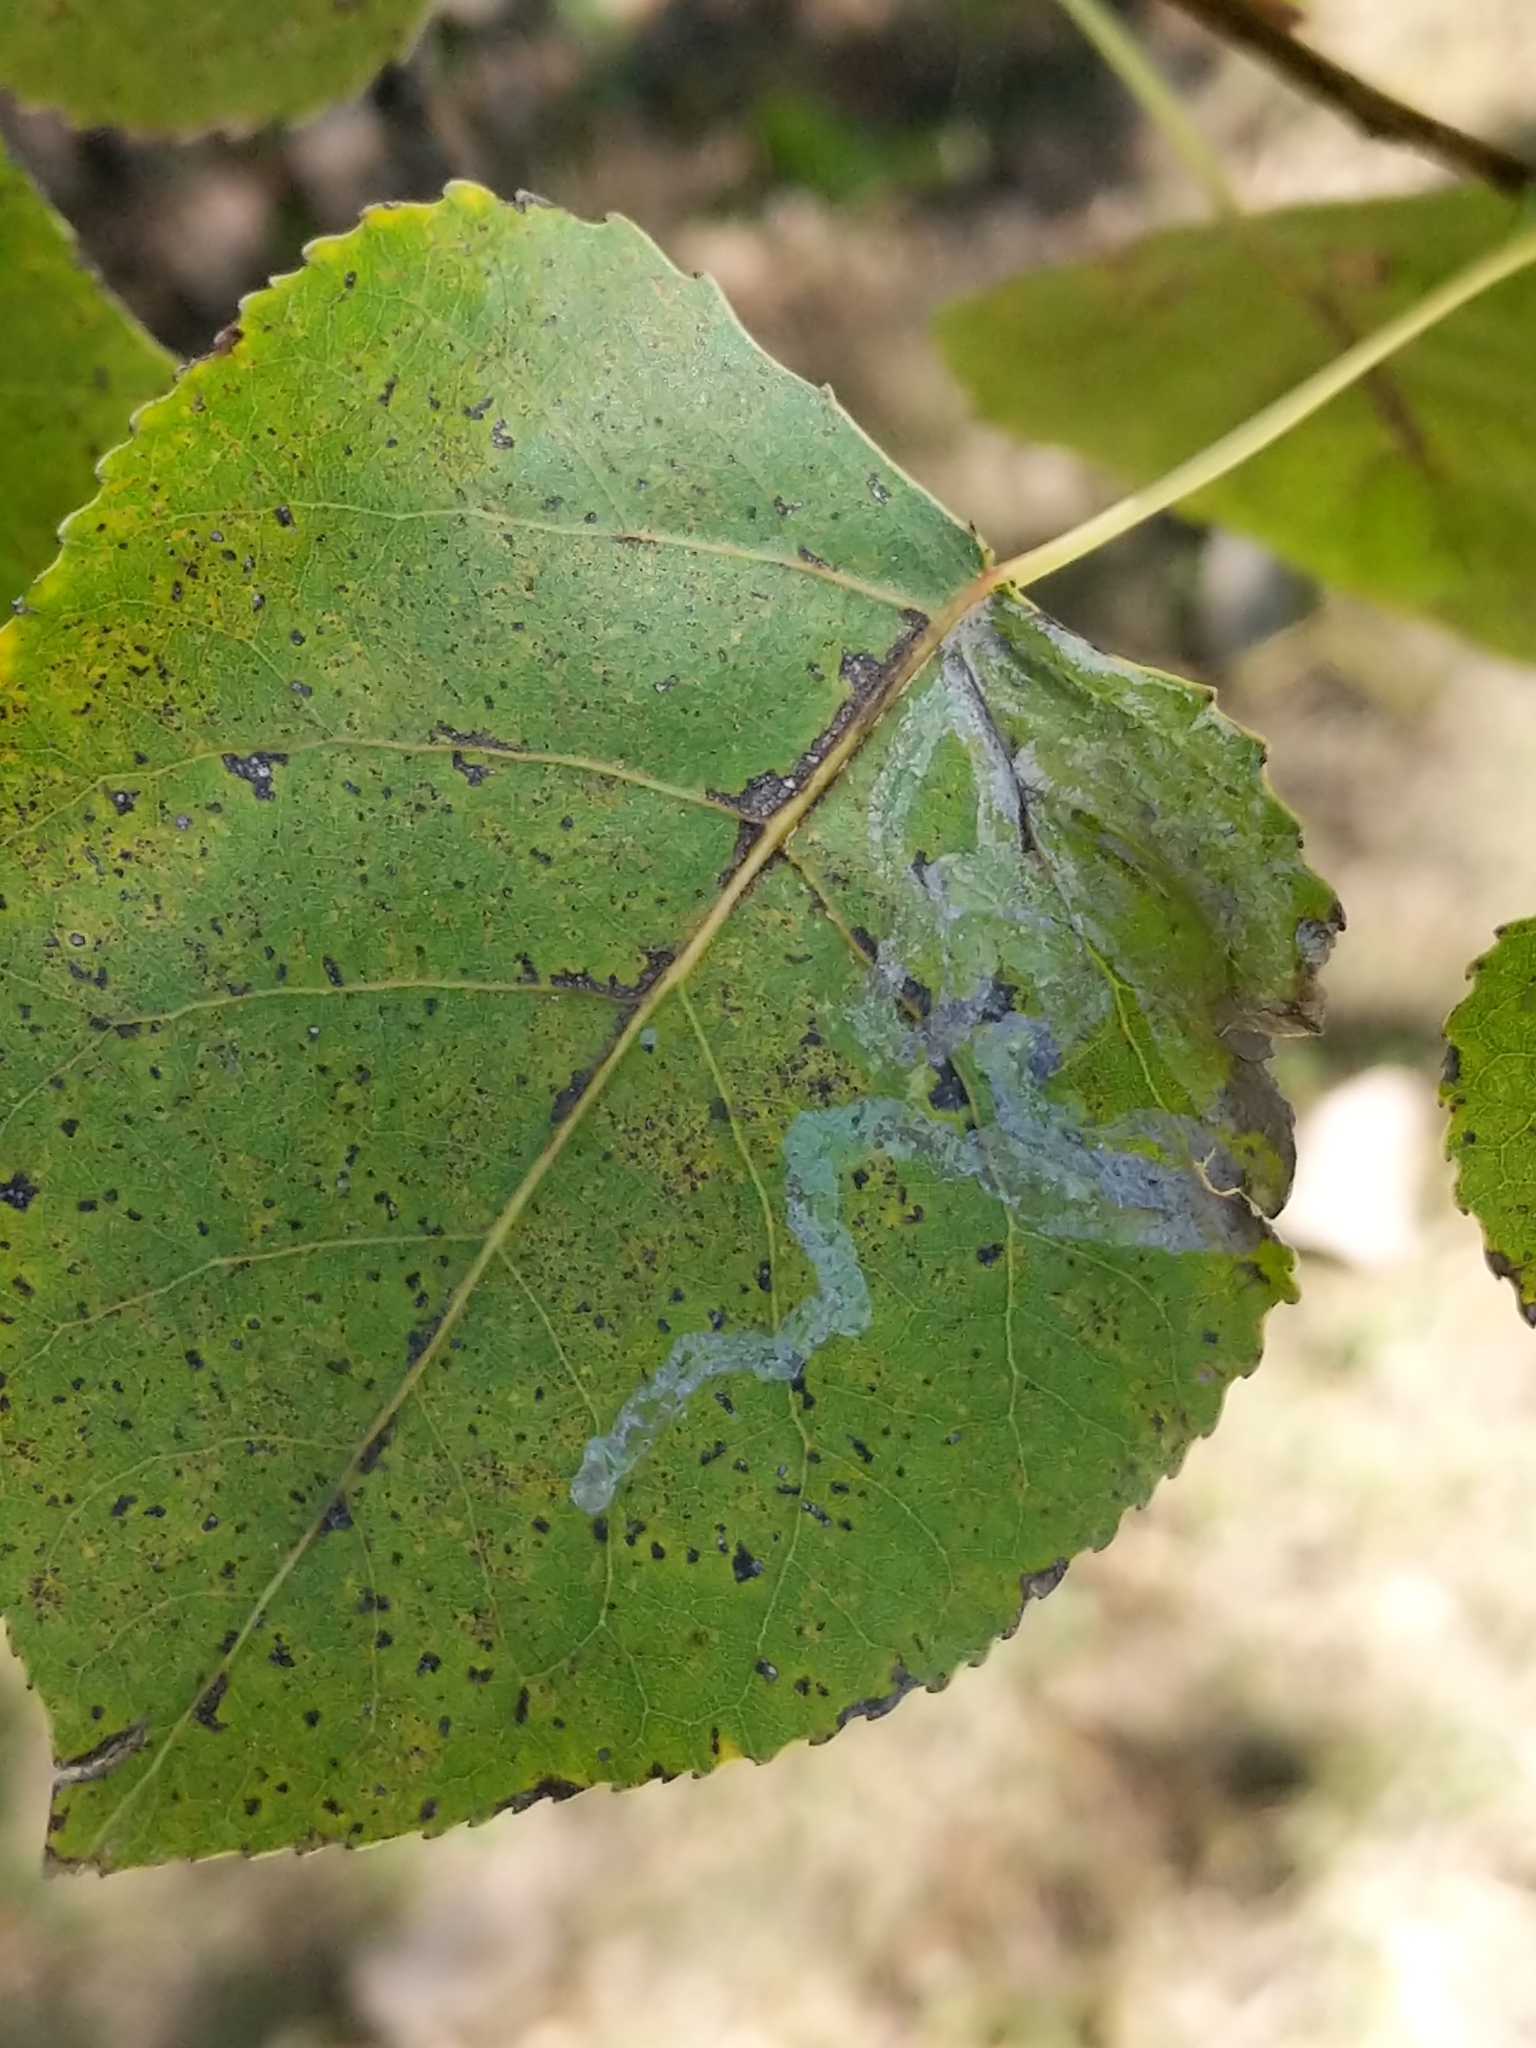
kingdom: Animalia
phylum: Arthropoda
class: Insecta
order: Lepidoptera
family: Gracillariidae
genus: Phyllocnistis
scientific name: Phyllocnistis populiella
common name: Aspen serpentine leafminer moth
